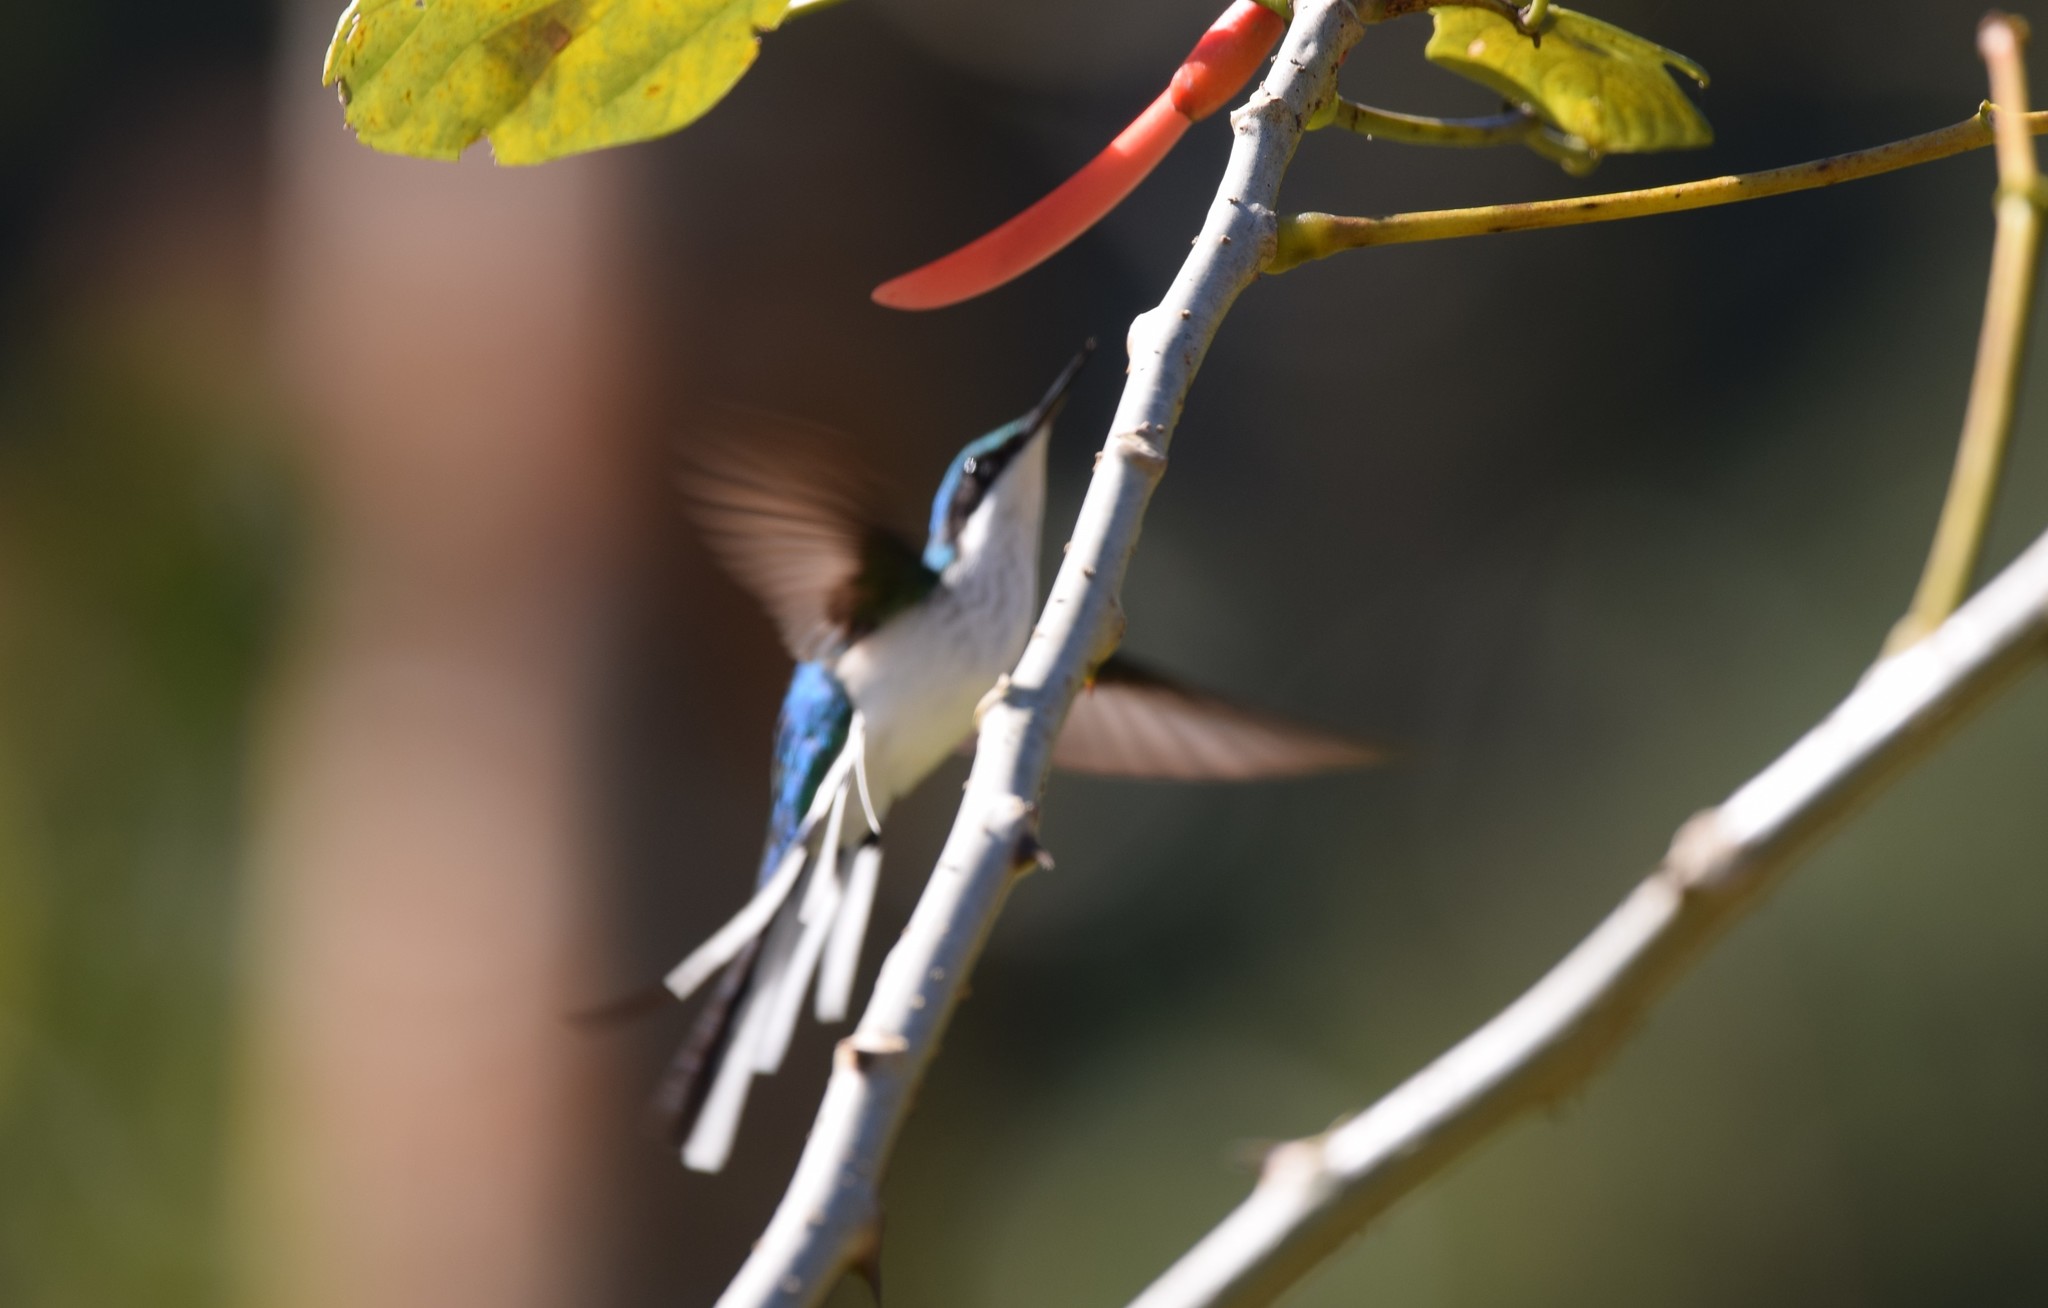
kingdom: Animalia
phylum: Chordata
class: Aves
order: Apodiformes
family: Trochilidae
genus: Heliothryx
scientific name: Heliothryx barroti
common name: Purple-crowned fairy
